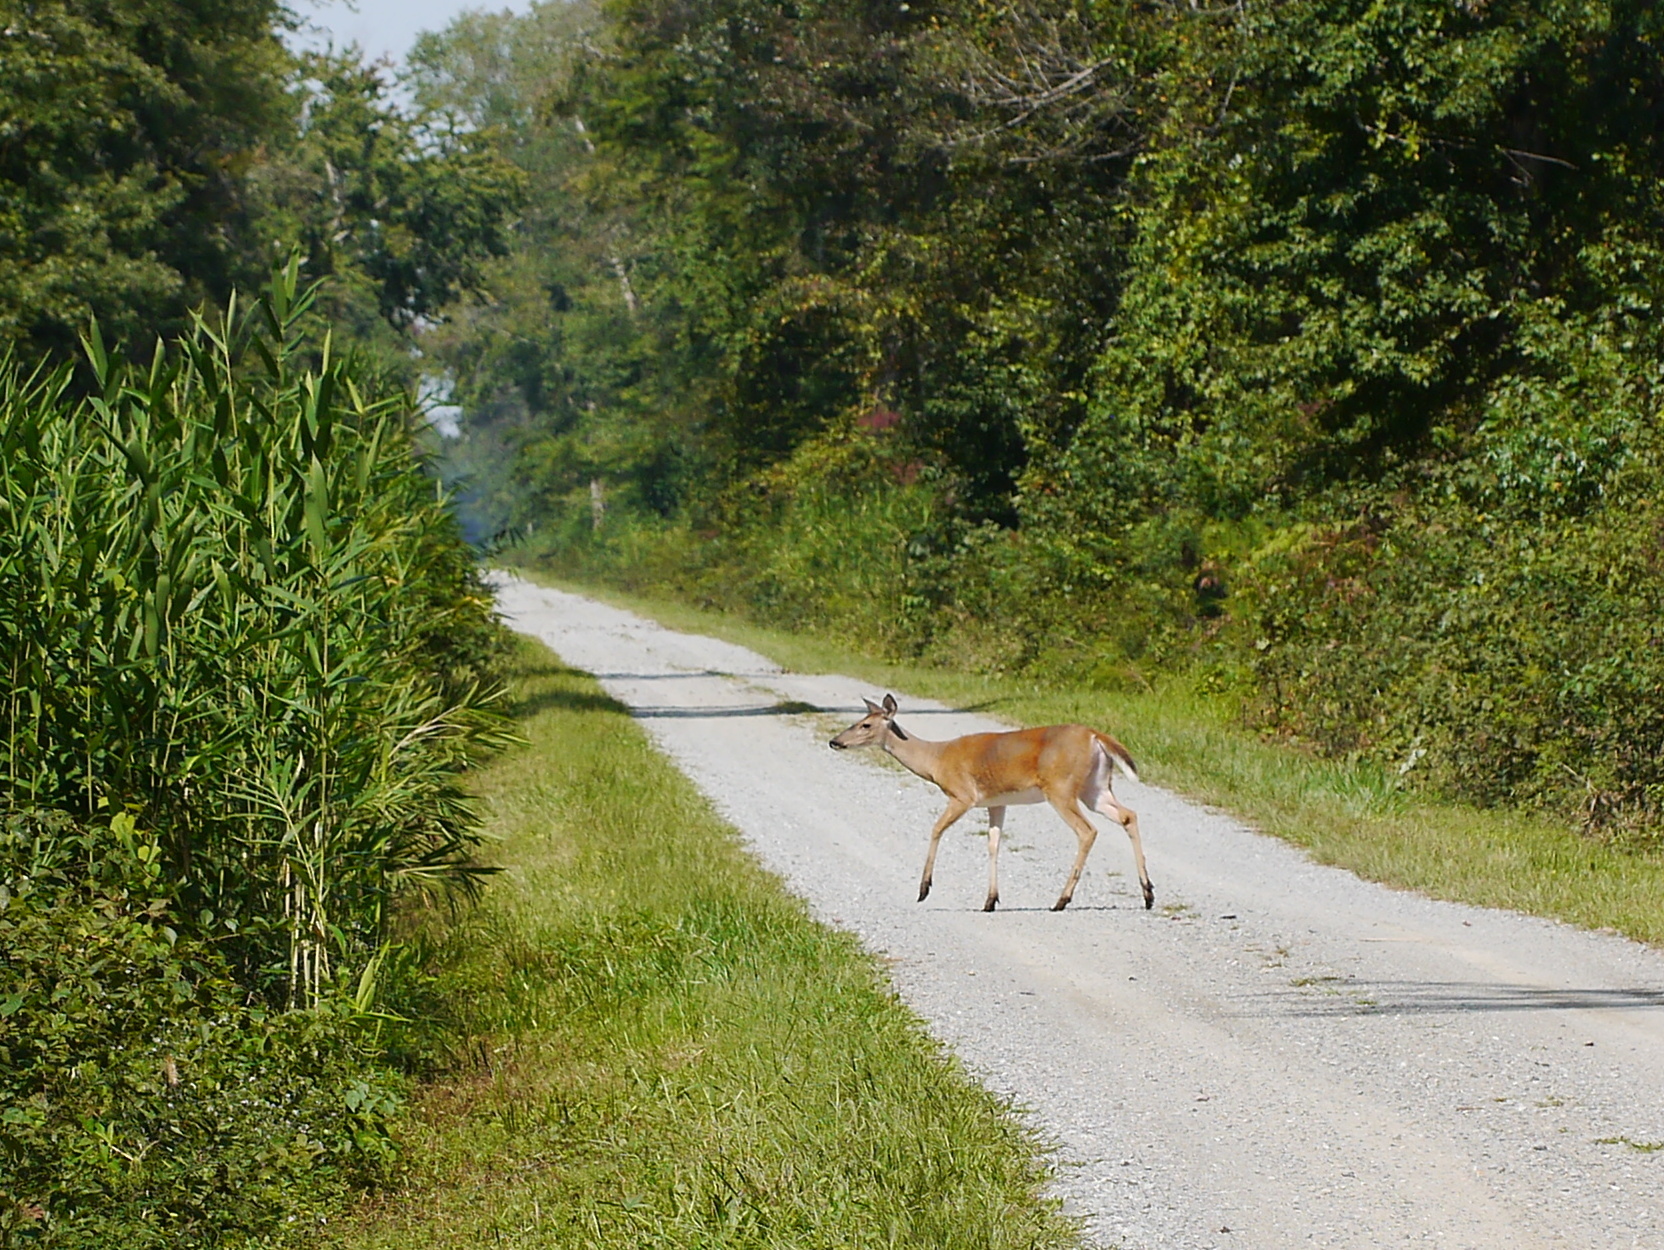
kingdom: Animalia
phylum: Chordata
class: Mammalia
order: Artiodactyla
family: Cervidae
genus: Odocoileus
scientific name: Odocoileus virginianus
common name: White-tailed deer
